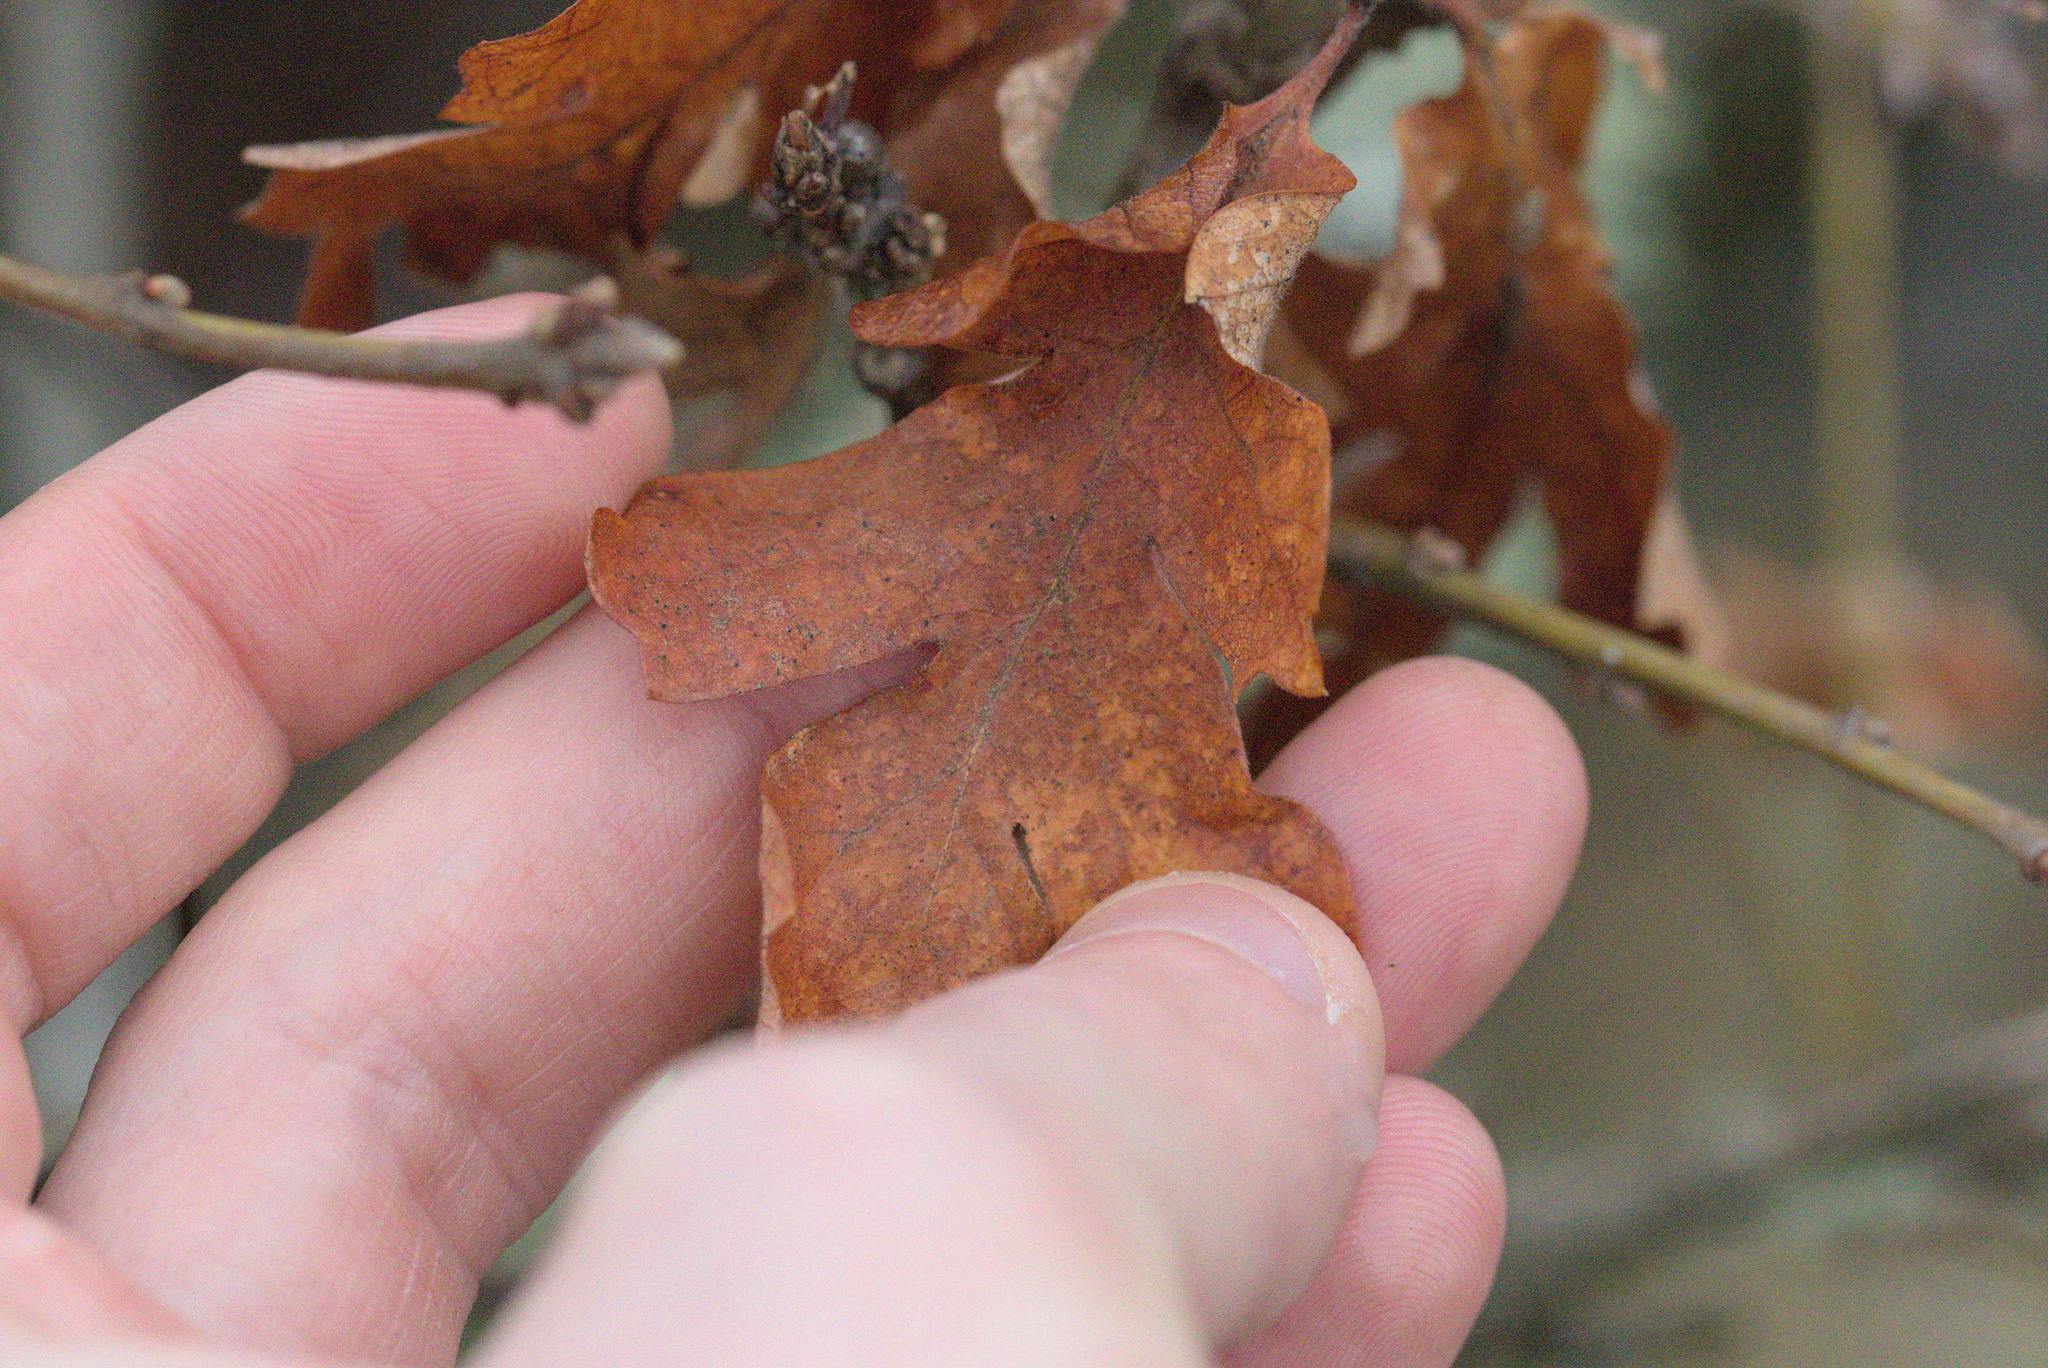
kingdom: Plantae
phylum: Tracheophyta
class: Magnoliopsida
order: Fagales
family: Fagaceae
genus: Quercus
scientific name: Quercus garryana
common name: Garry oak
